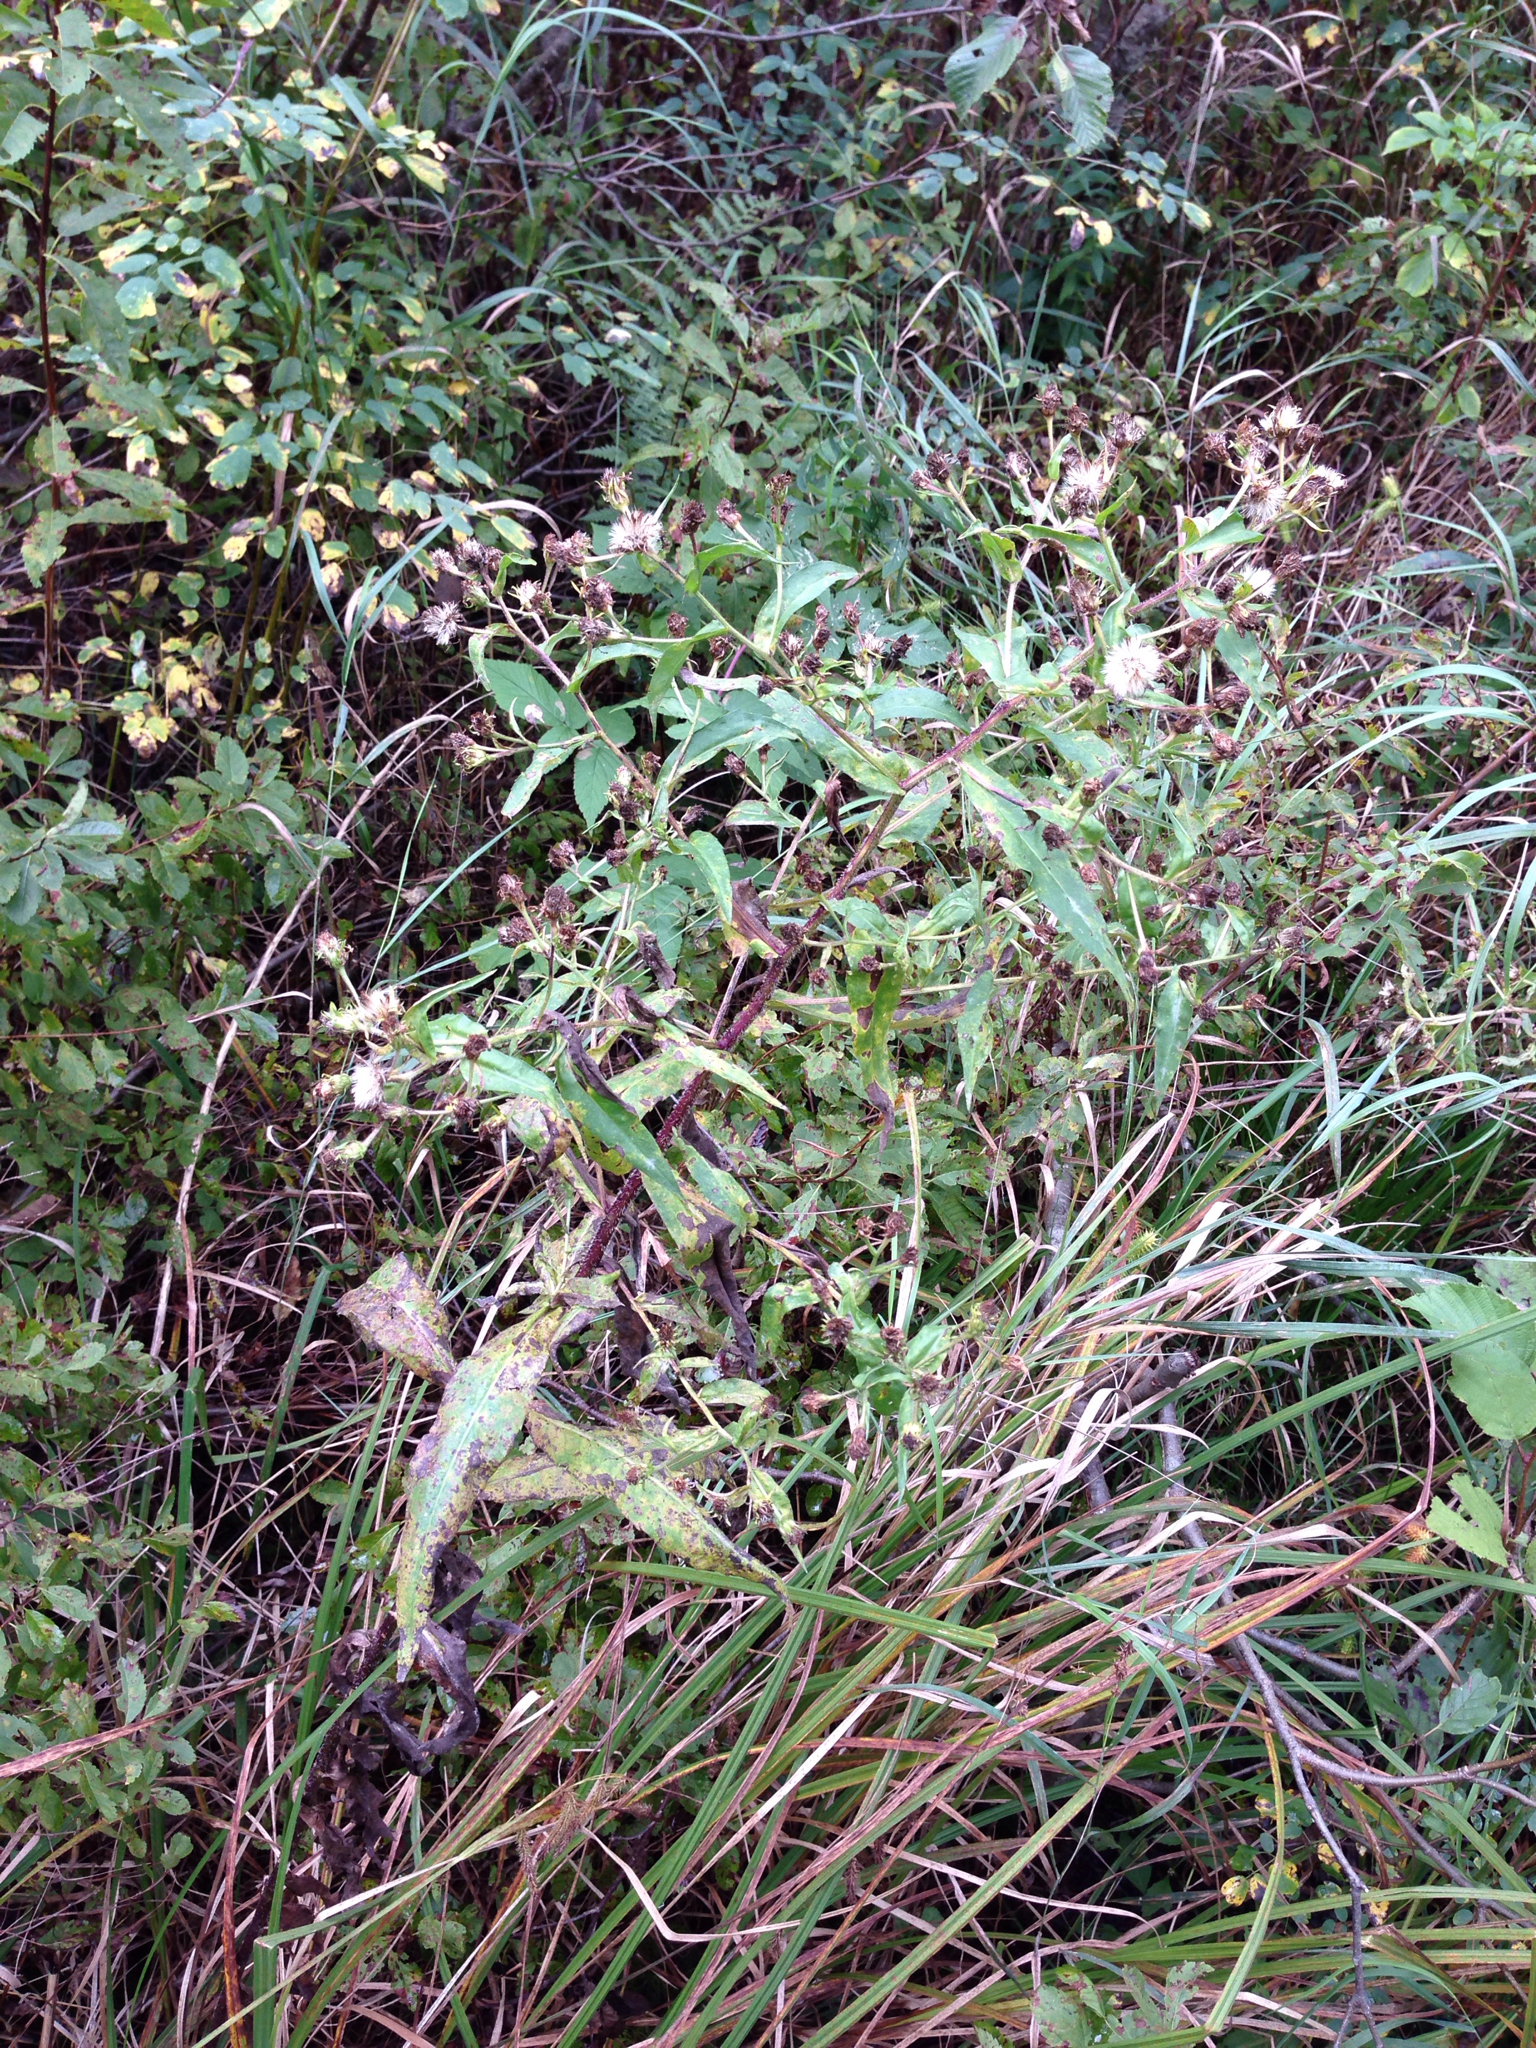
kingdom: Plantae
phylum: Tracheophyta
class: Magnoliopsida
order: Asterales
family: Asteraceae
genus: Symphyotrichum
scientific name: Symphyotrichum puniceum
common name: Bog aster
